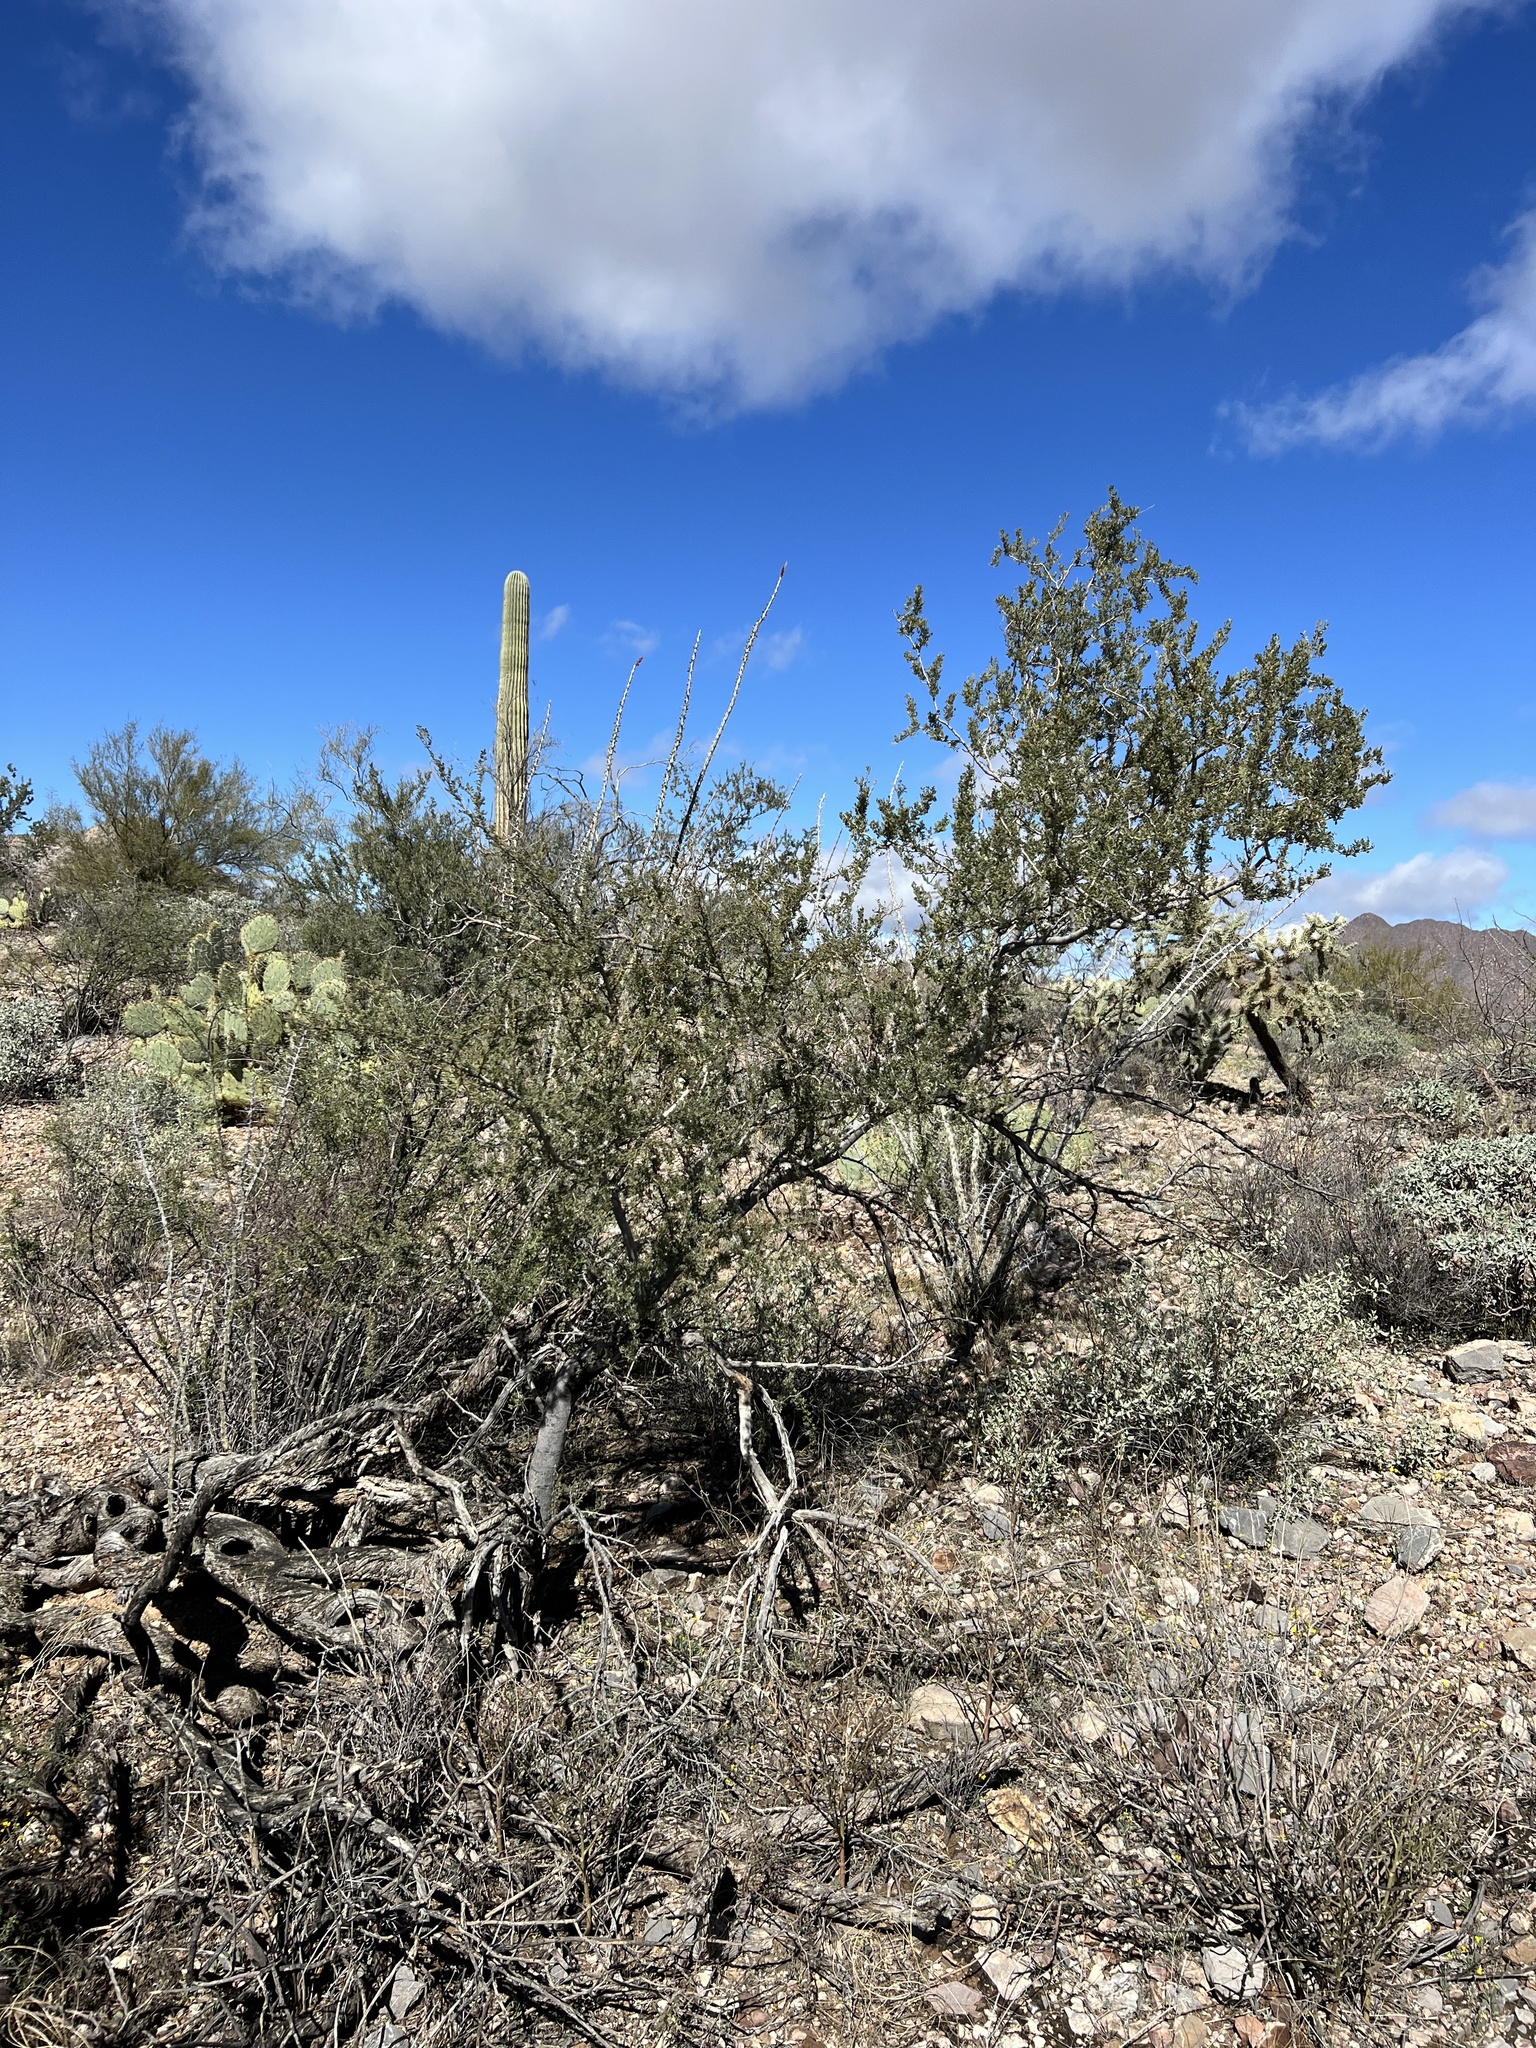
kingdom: Plantae
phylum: Tracheophyta
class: Magnoliopsida
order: Fabales
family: Fabaceae
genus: Olneya
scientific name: Olneya tesota
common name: Desert ironwood
